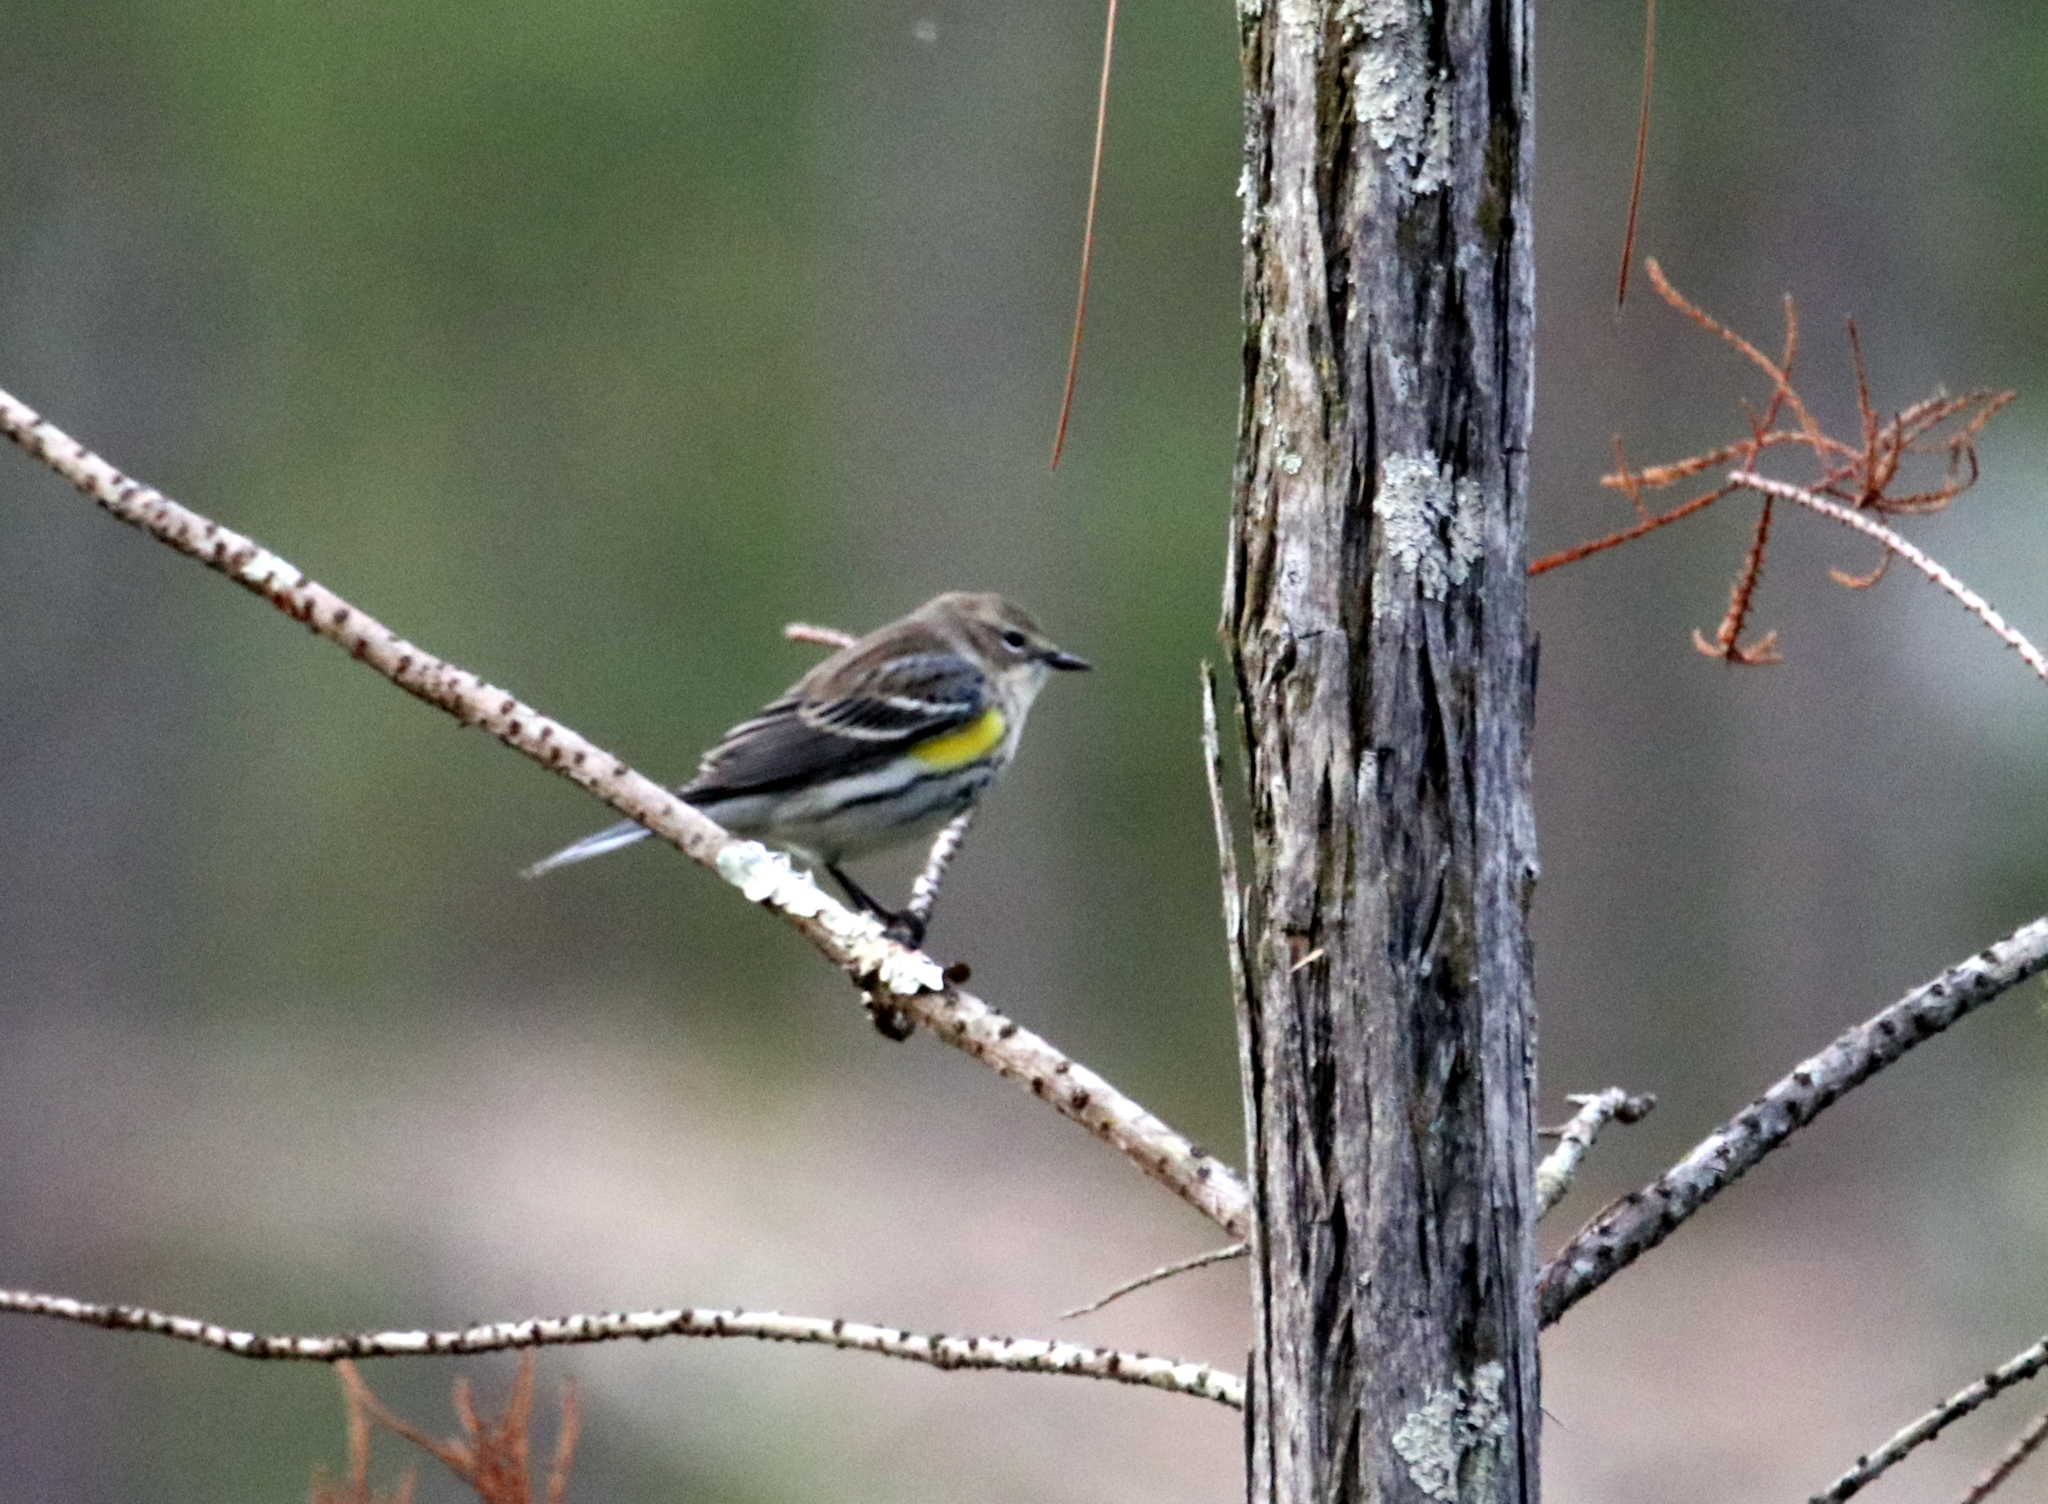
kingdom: Animalia
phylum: Chordata
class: Aves
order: Passeriformes
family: Parulidae
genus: Setophaga
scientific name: Setophaga coronata
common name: Myrtle warbler
